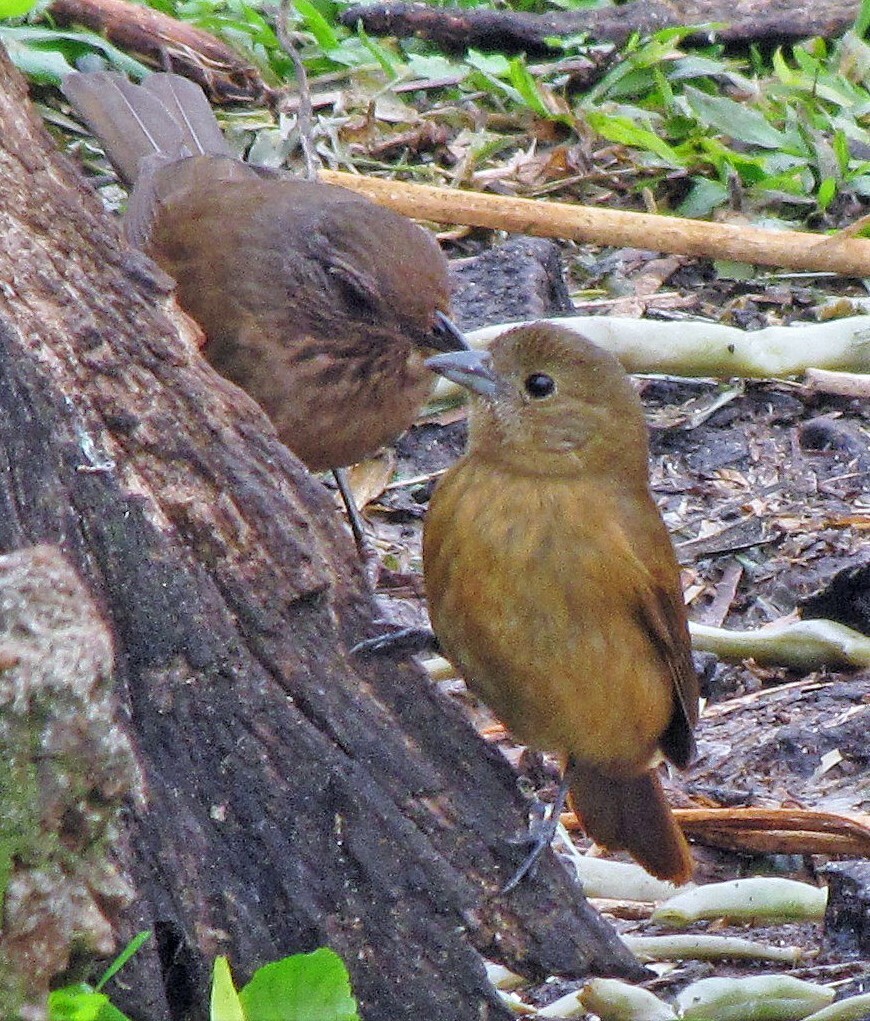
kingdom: Animalia
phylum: Chordata
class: Aves
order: Passeriformes
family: Thraupidae
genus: Tachyphonus
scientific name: Tachyphonus coronatus
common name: Ruby-crowned tanager
